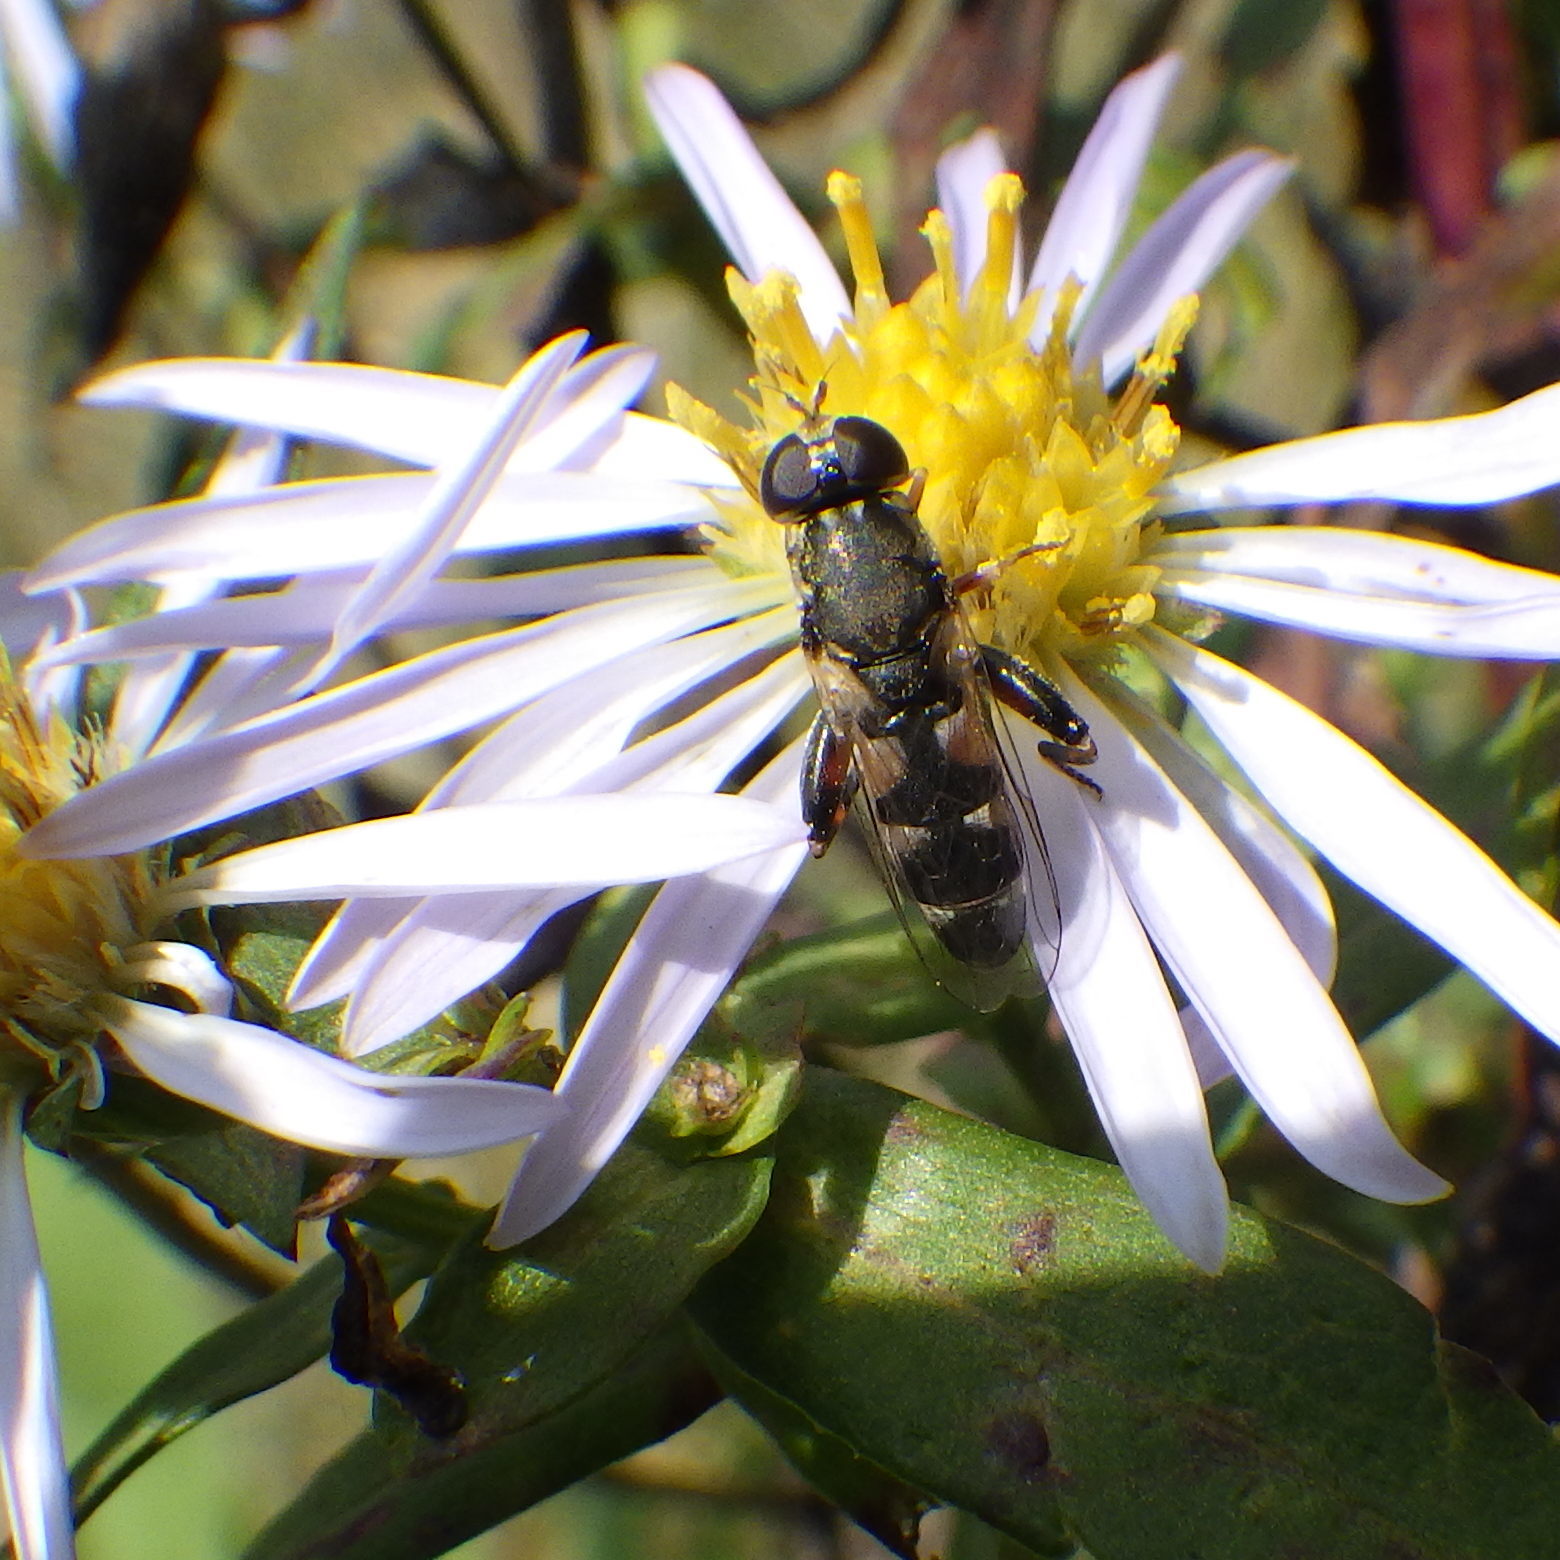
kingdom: Animalia
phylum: Arthropoda
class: Insecta
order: Diptera
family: Syrphidae
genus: Syritta
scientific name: Syritta pipiens
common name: Hover fly
